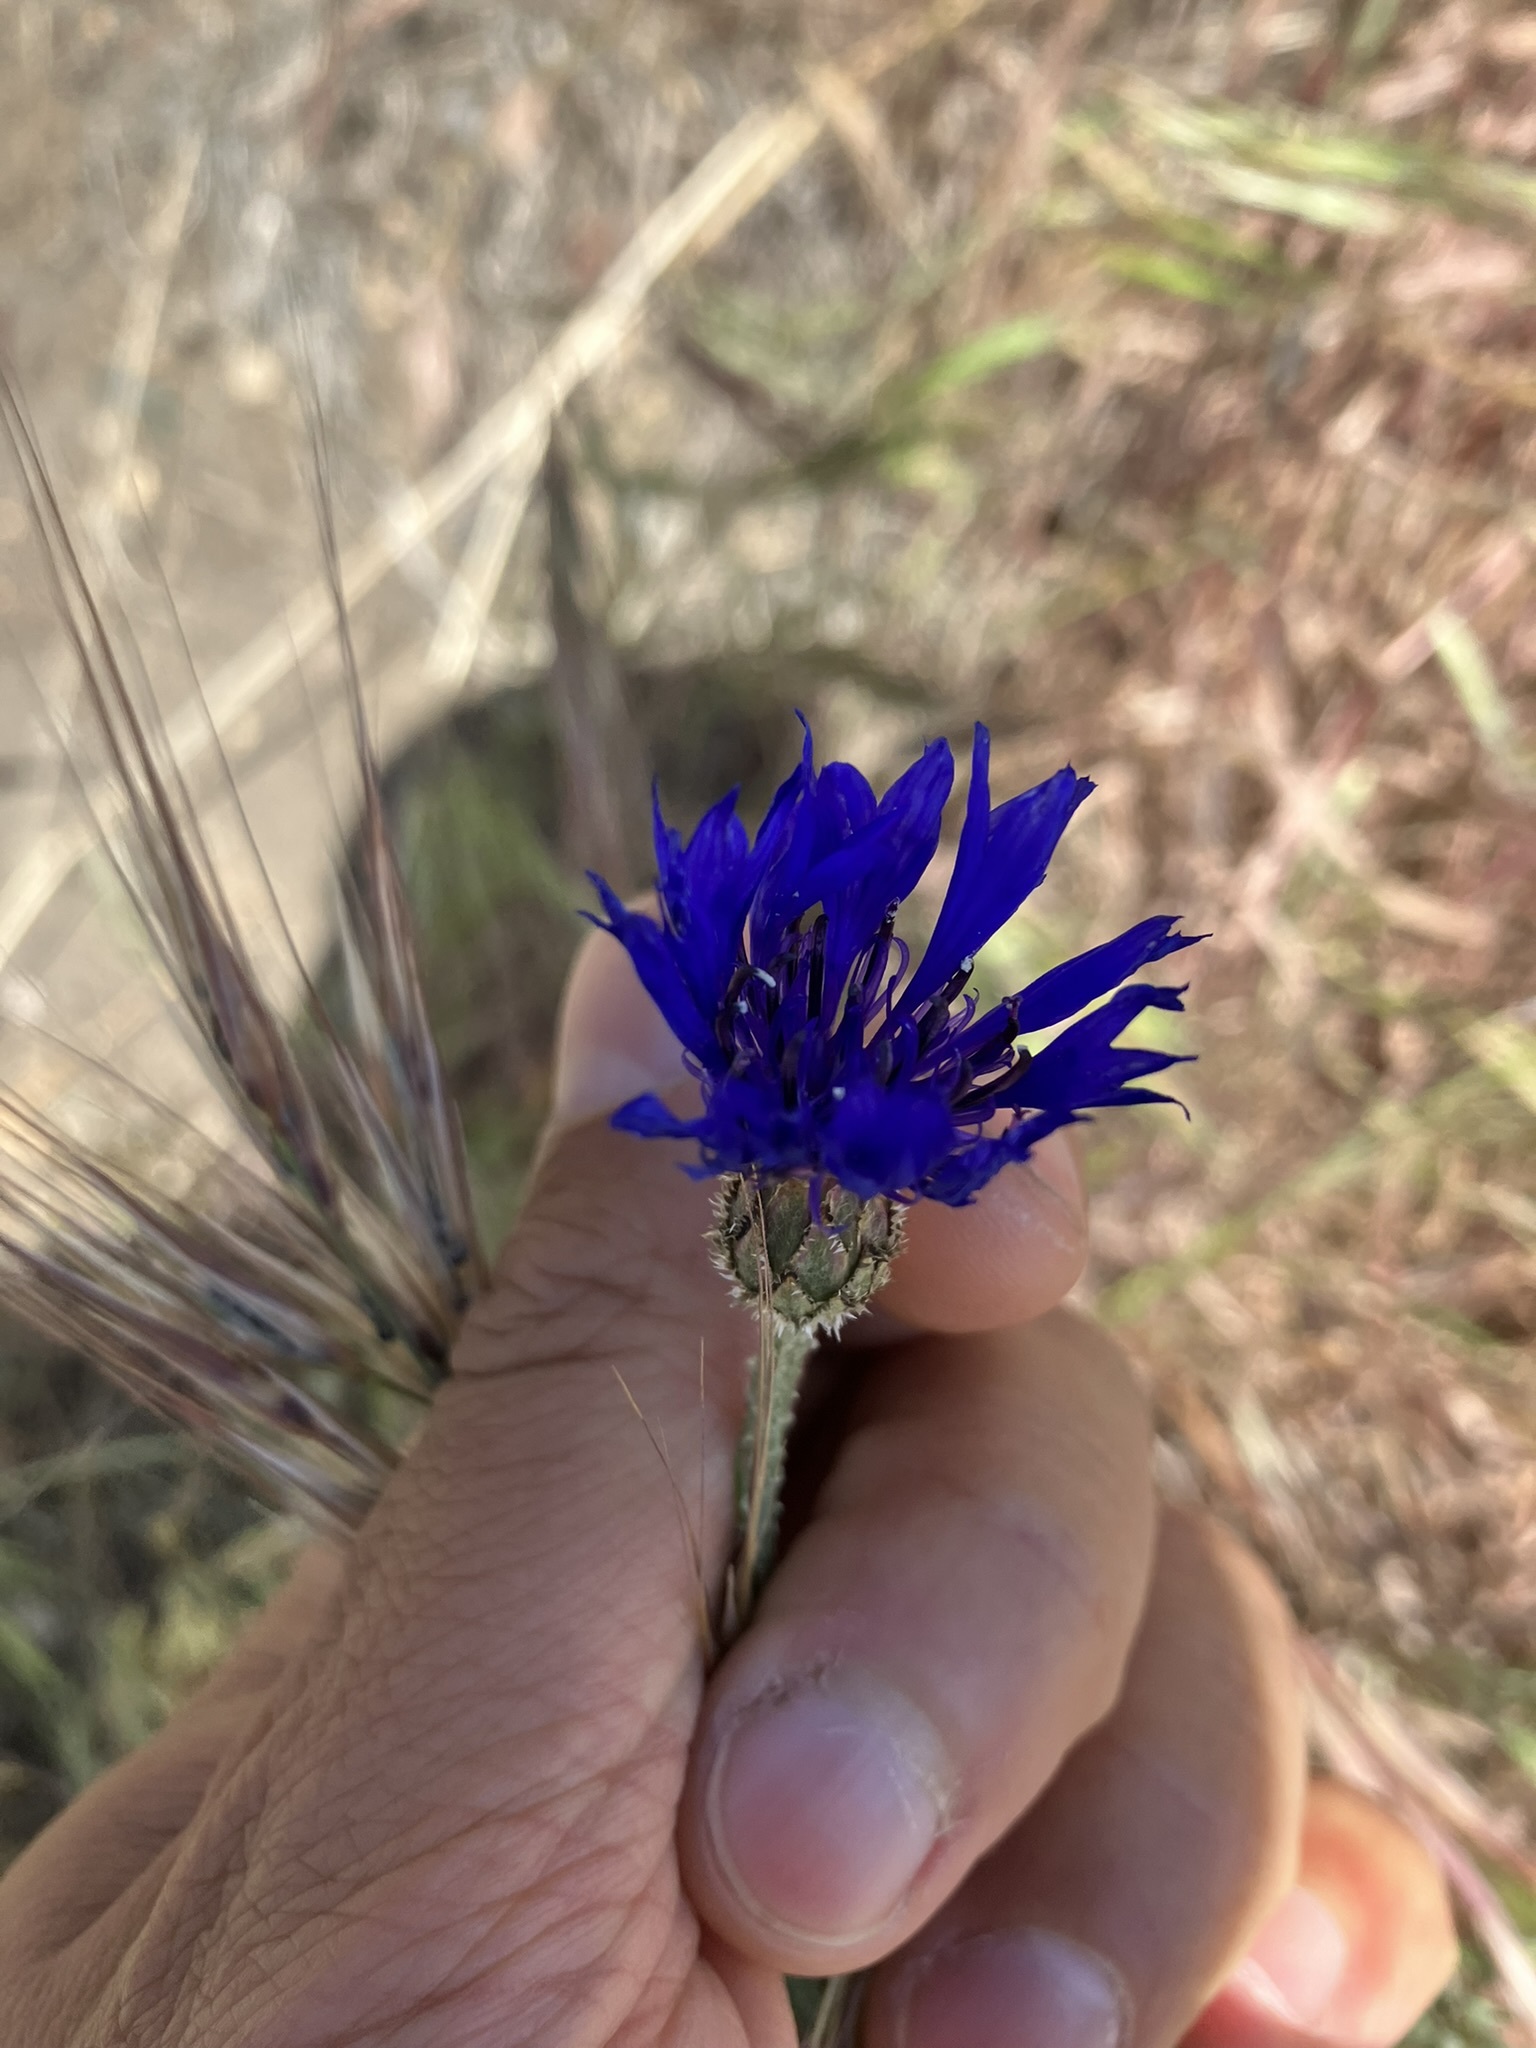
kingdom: Plantae
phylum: Tracheophyta
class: Magnoliopsida
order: Asterales
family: Asteraceae
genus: Centaurea
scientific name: Centaurea cyanus
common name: Cornflower
